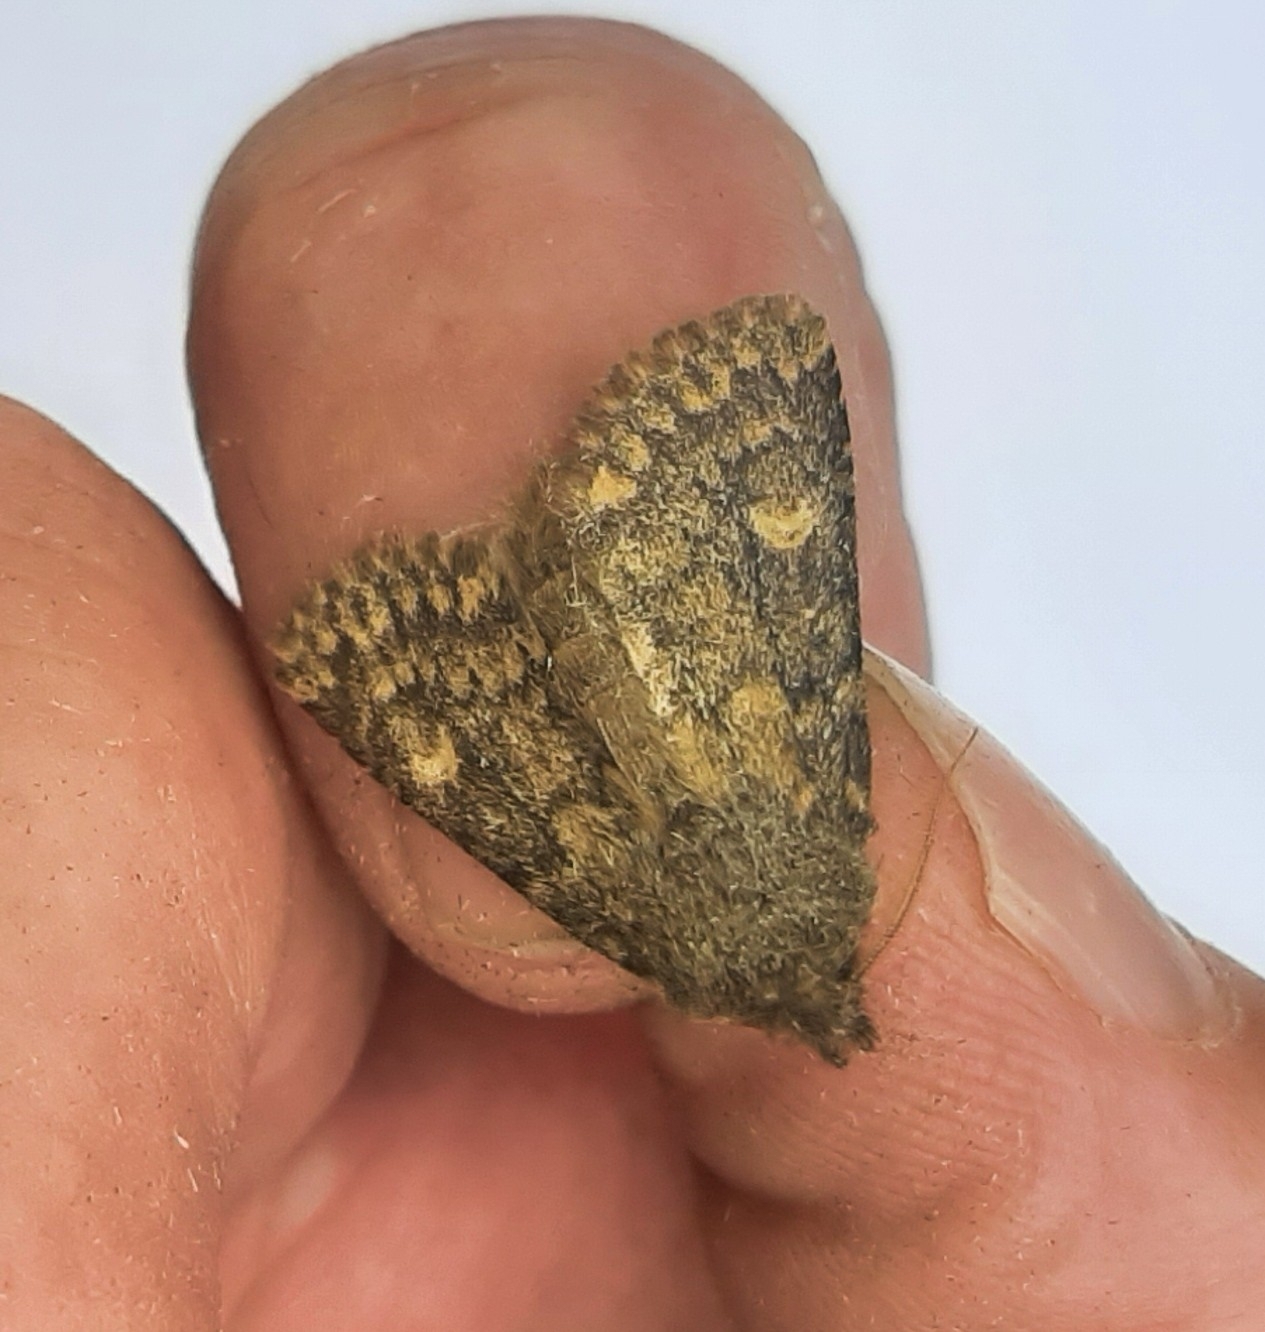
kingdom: Animalia
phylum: Arthropoda
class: Insecta
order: Lepidoptera
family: Noctuidae
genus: Dasypolia
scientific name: Dasypolia templi
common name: Brindled ochre
